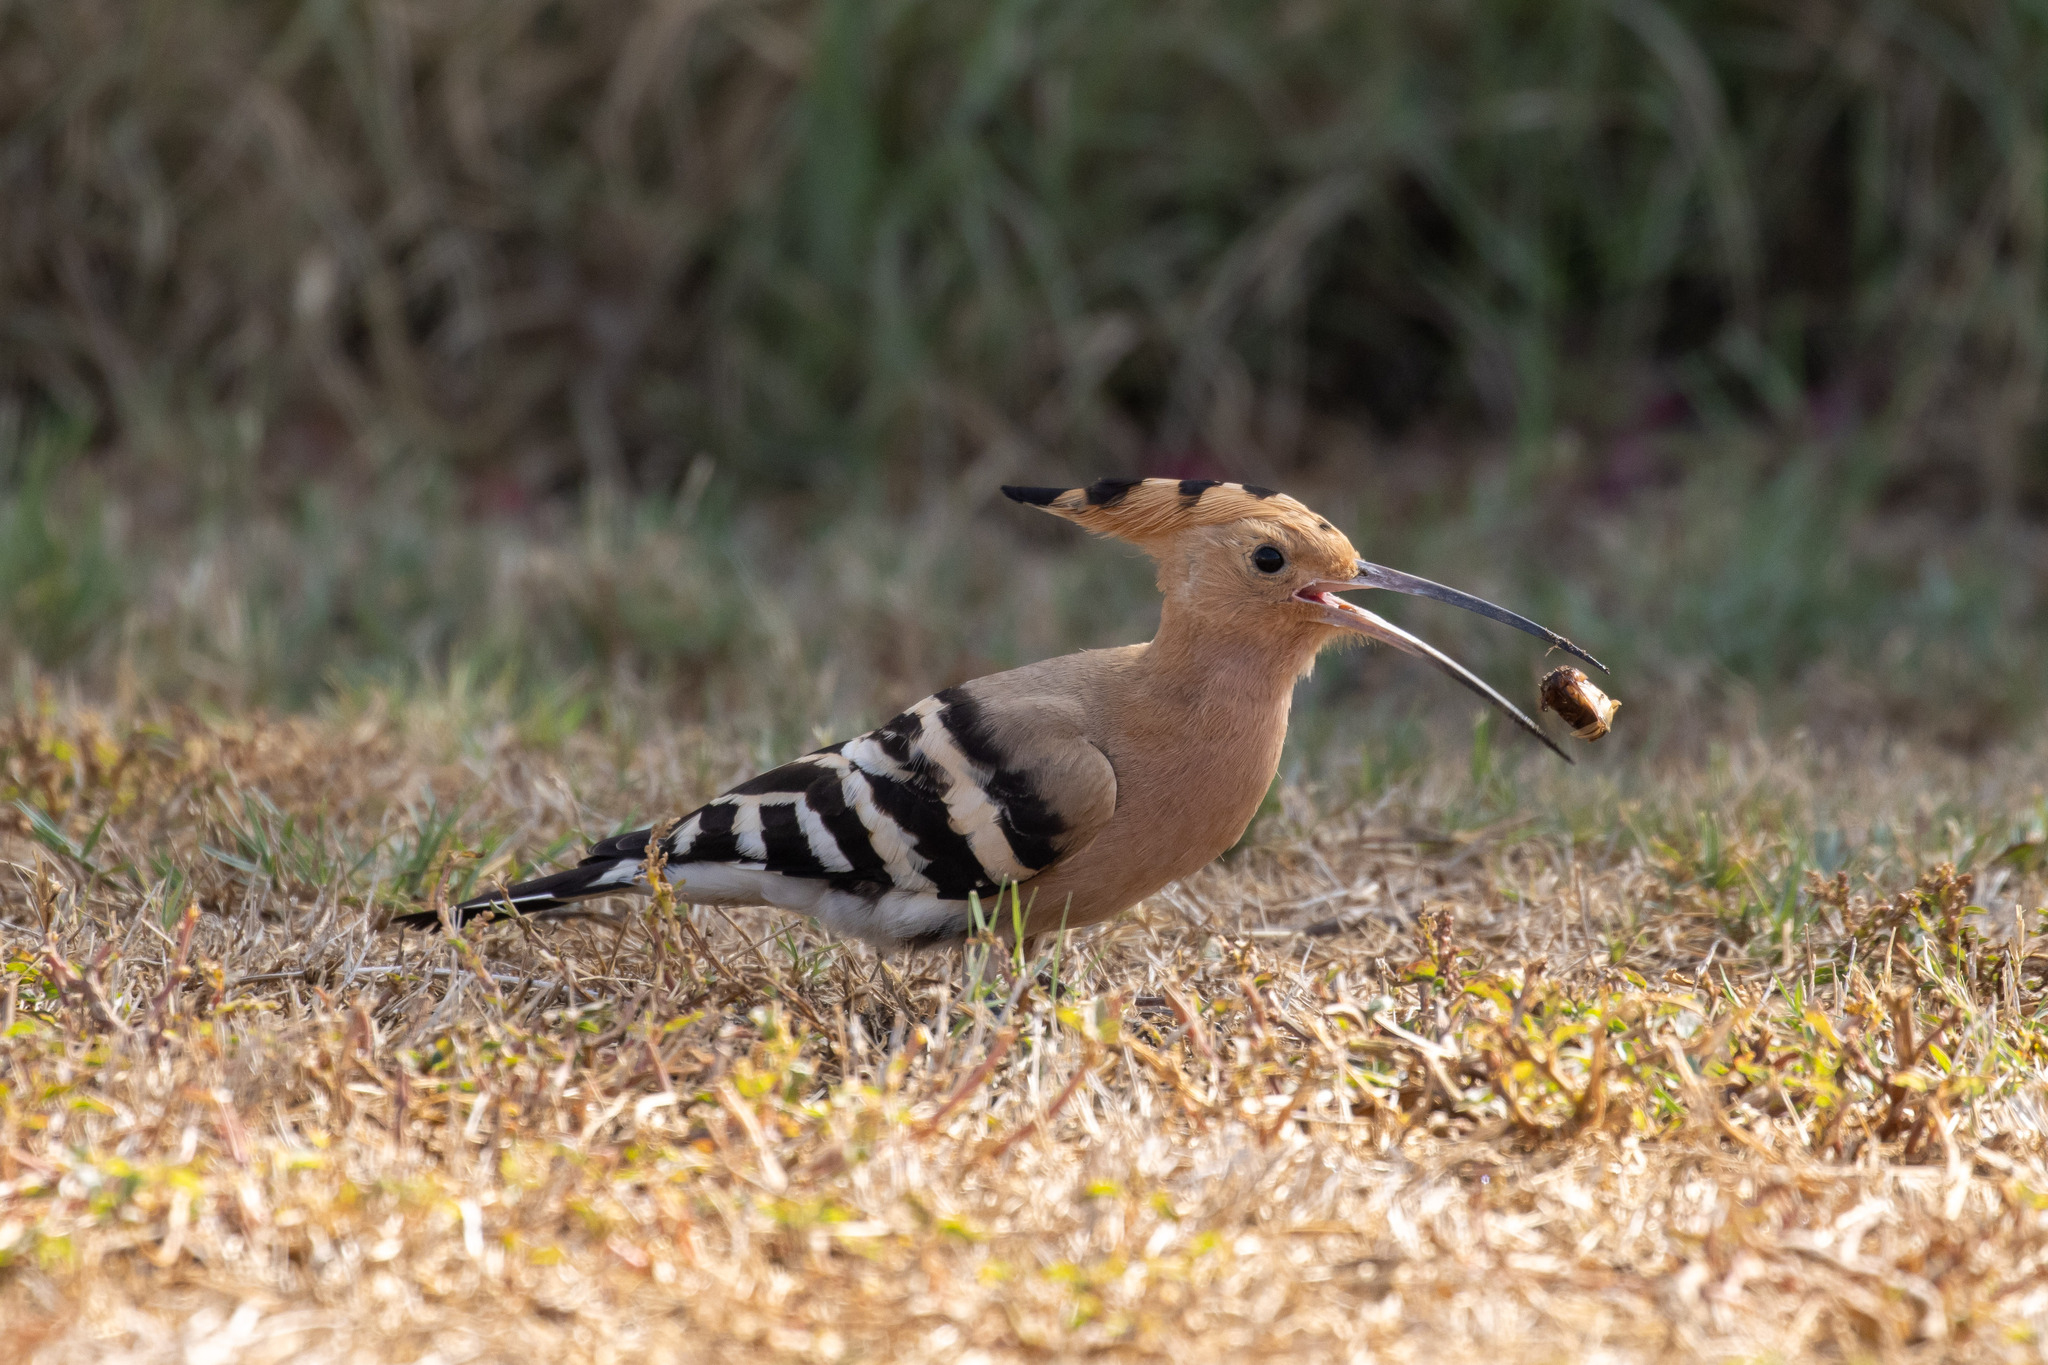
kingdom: Animalia
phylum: Chordata
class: Aves
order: Bucerotiformes
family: Upupidae
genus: Upupa
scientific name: Upupa epops
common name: Eurasian hoopoe
